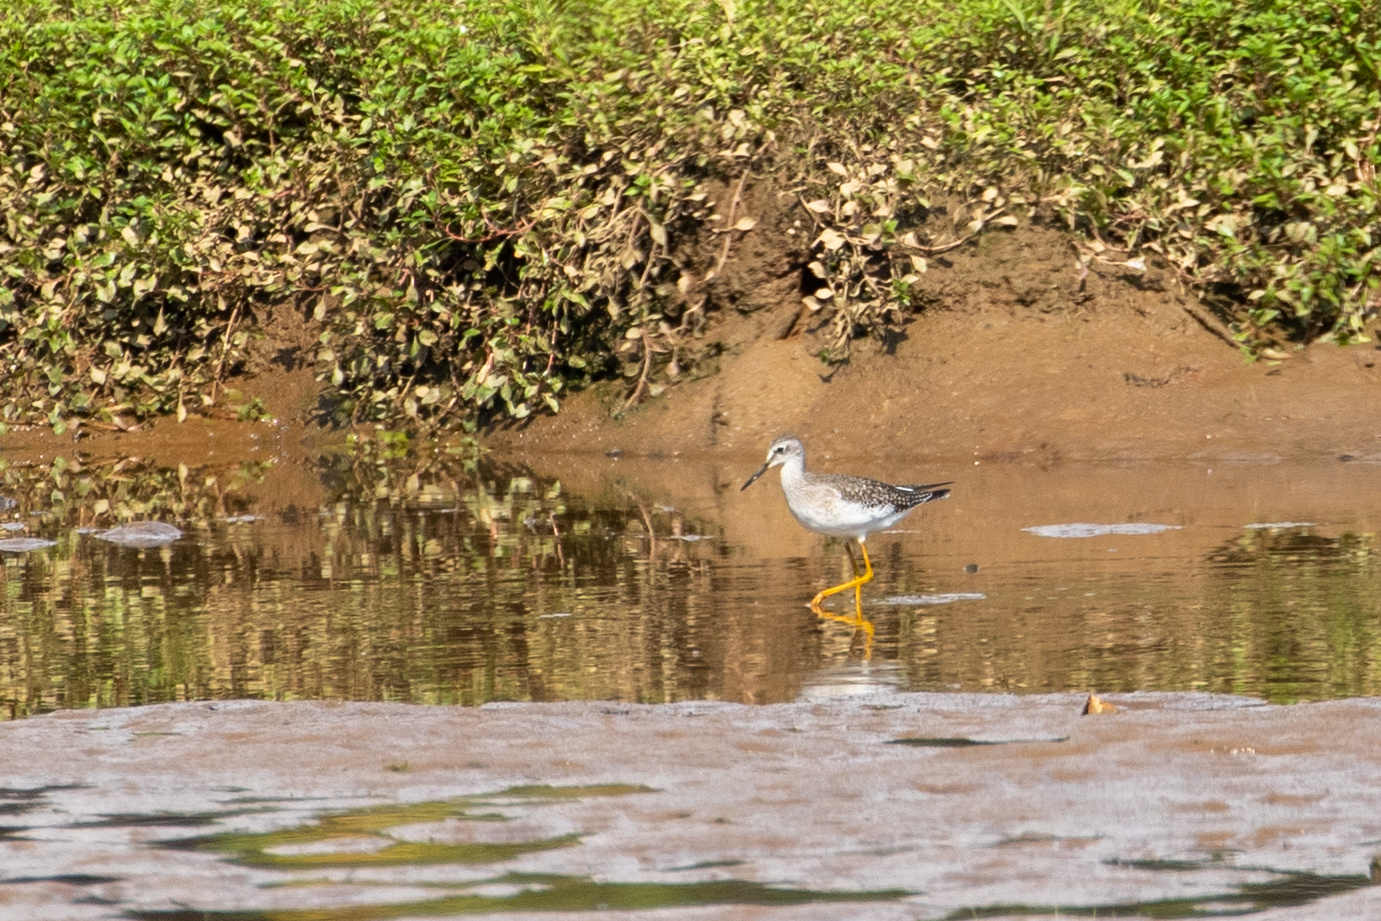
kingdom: Animalia
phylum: Chordata
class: Aves
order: Charadriiformes
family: Scolopacidae
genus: Tringa
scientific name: Tringa flavipes
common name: Lesser yellowlegs
